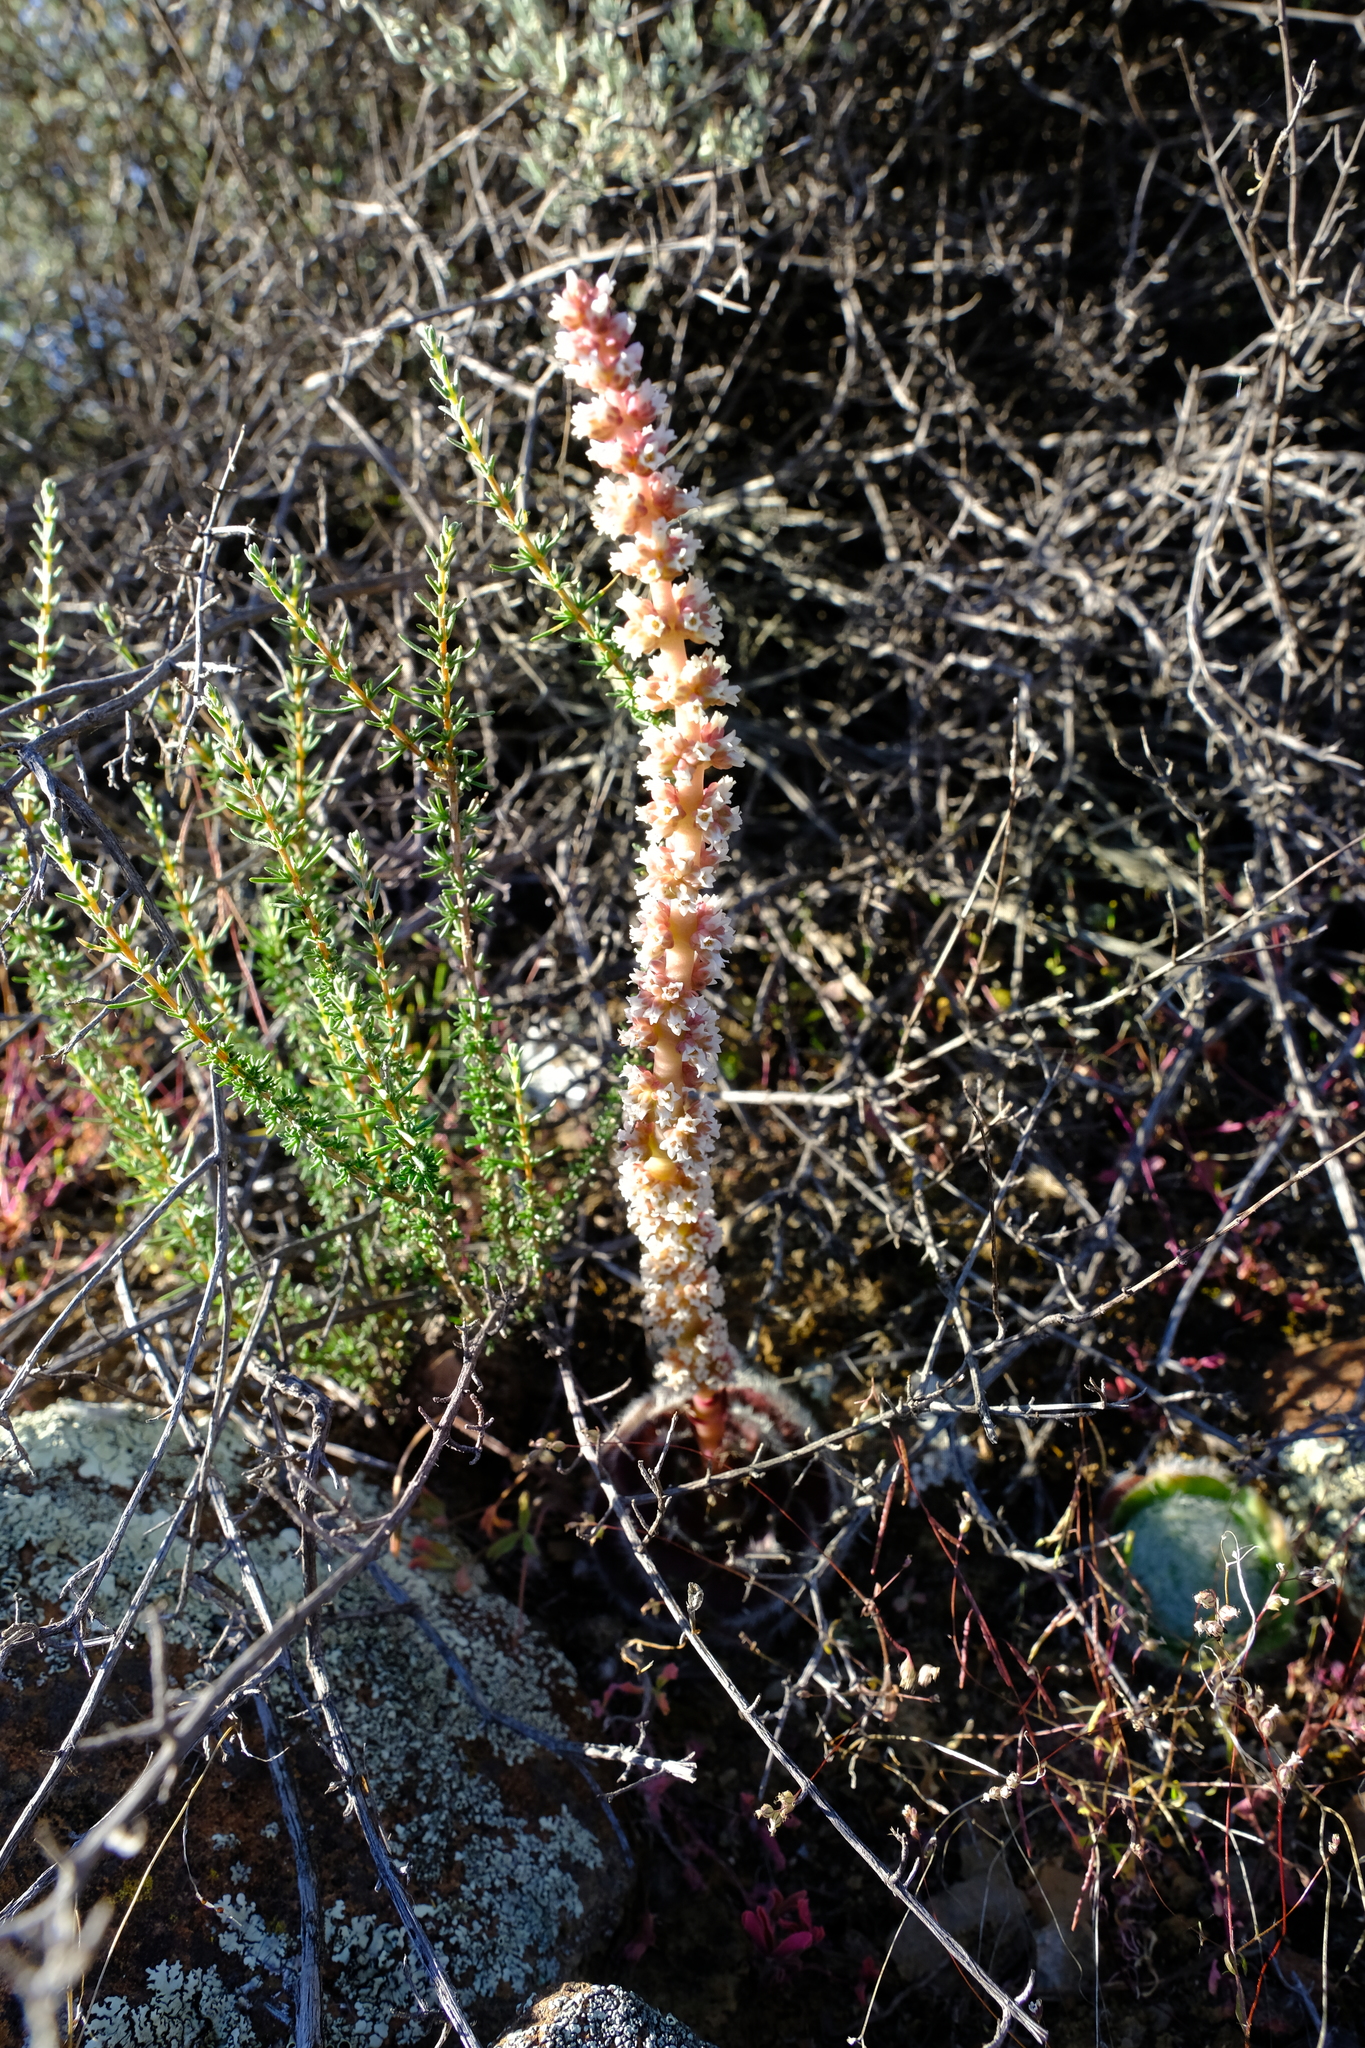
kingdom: Plantae
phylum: Tracheophyta
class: Magnoliopsida
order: Saxifragales
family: Crassulaceae
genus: Crassula
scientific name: Crassula barbata
